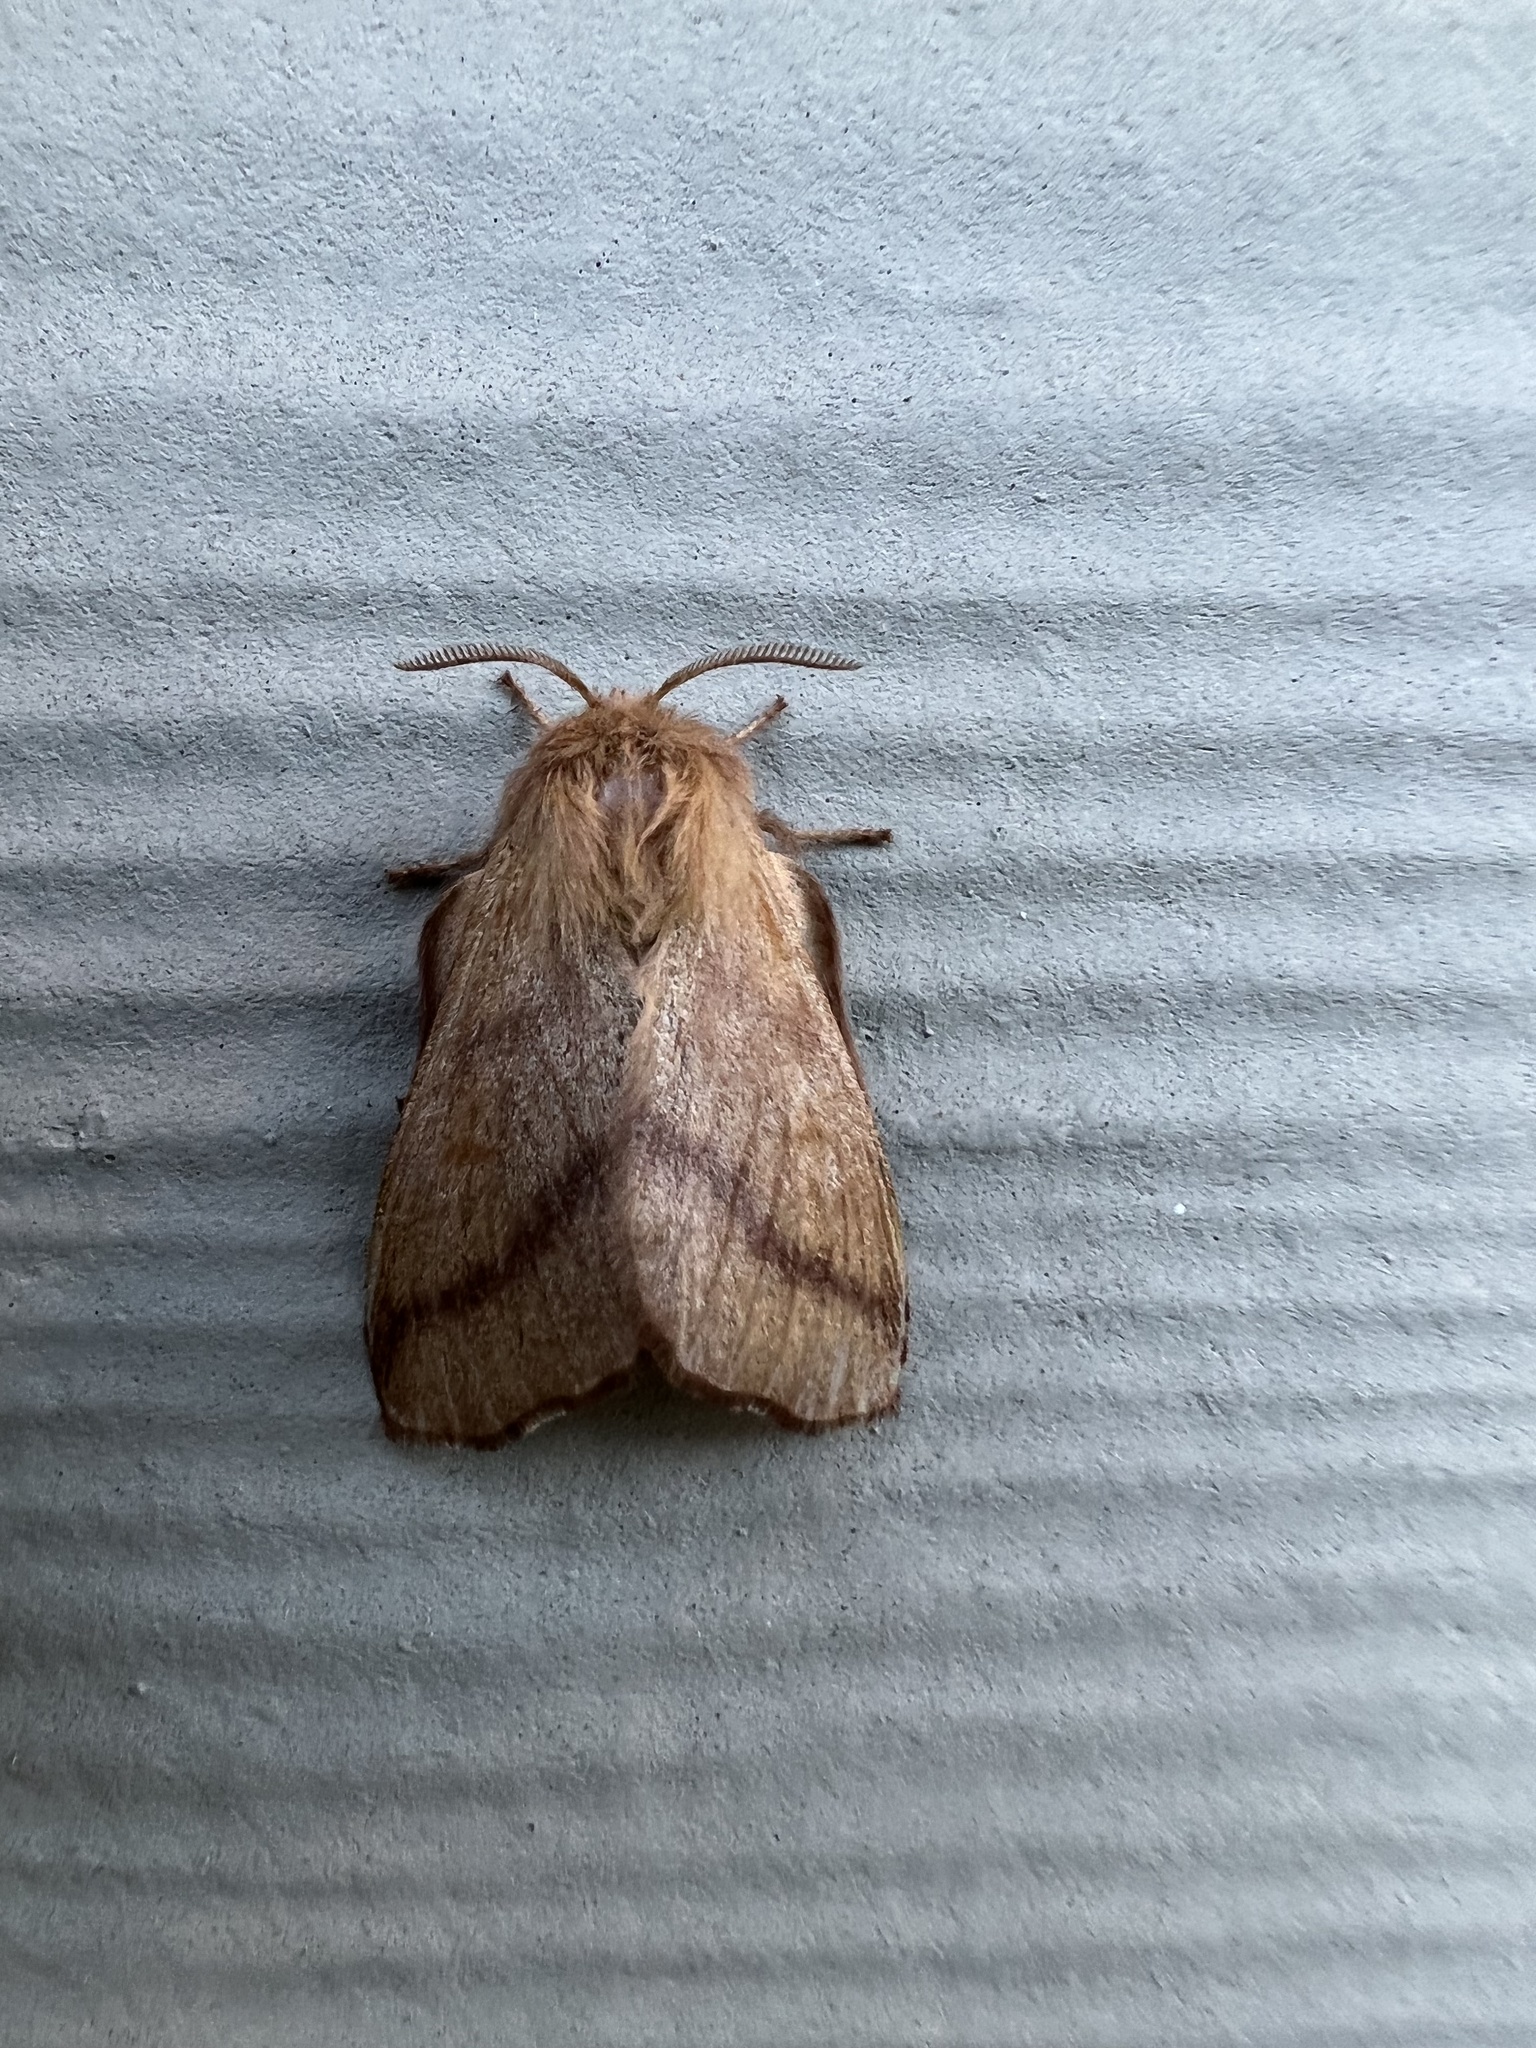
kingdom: Animalia
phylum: Arthropoda
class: Insecta
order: Lepidoptera
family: Lasiocampidae
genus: Malacosoma
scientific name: Malacosoma disstria
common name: Forest tent caterpillar
